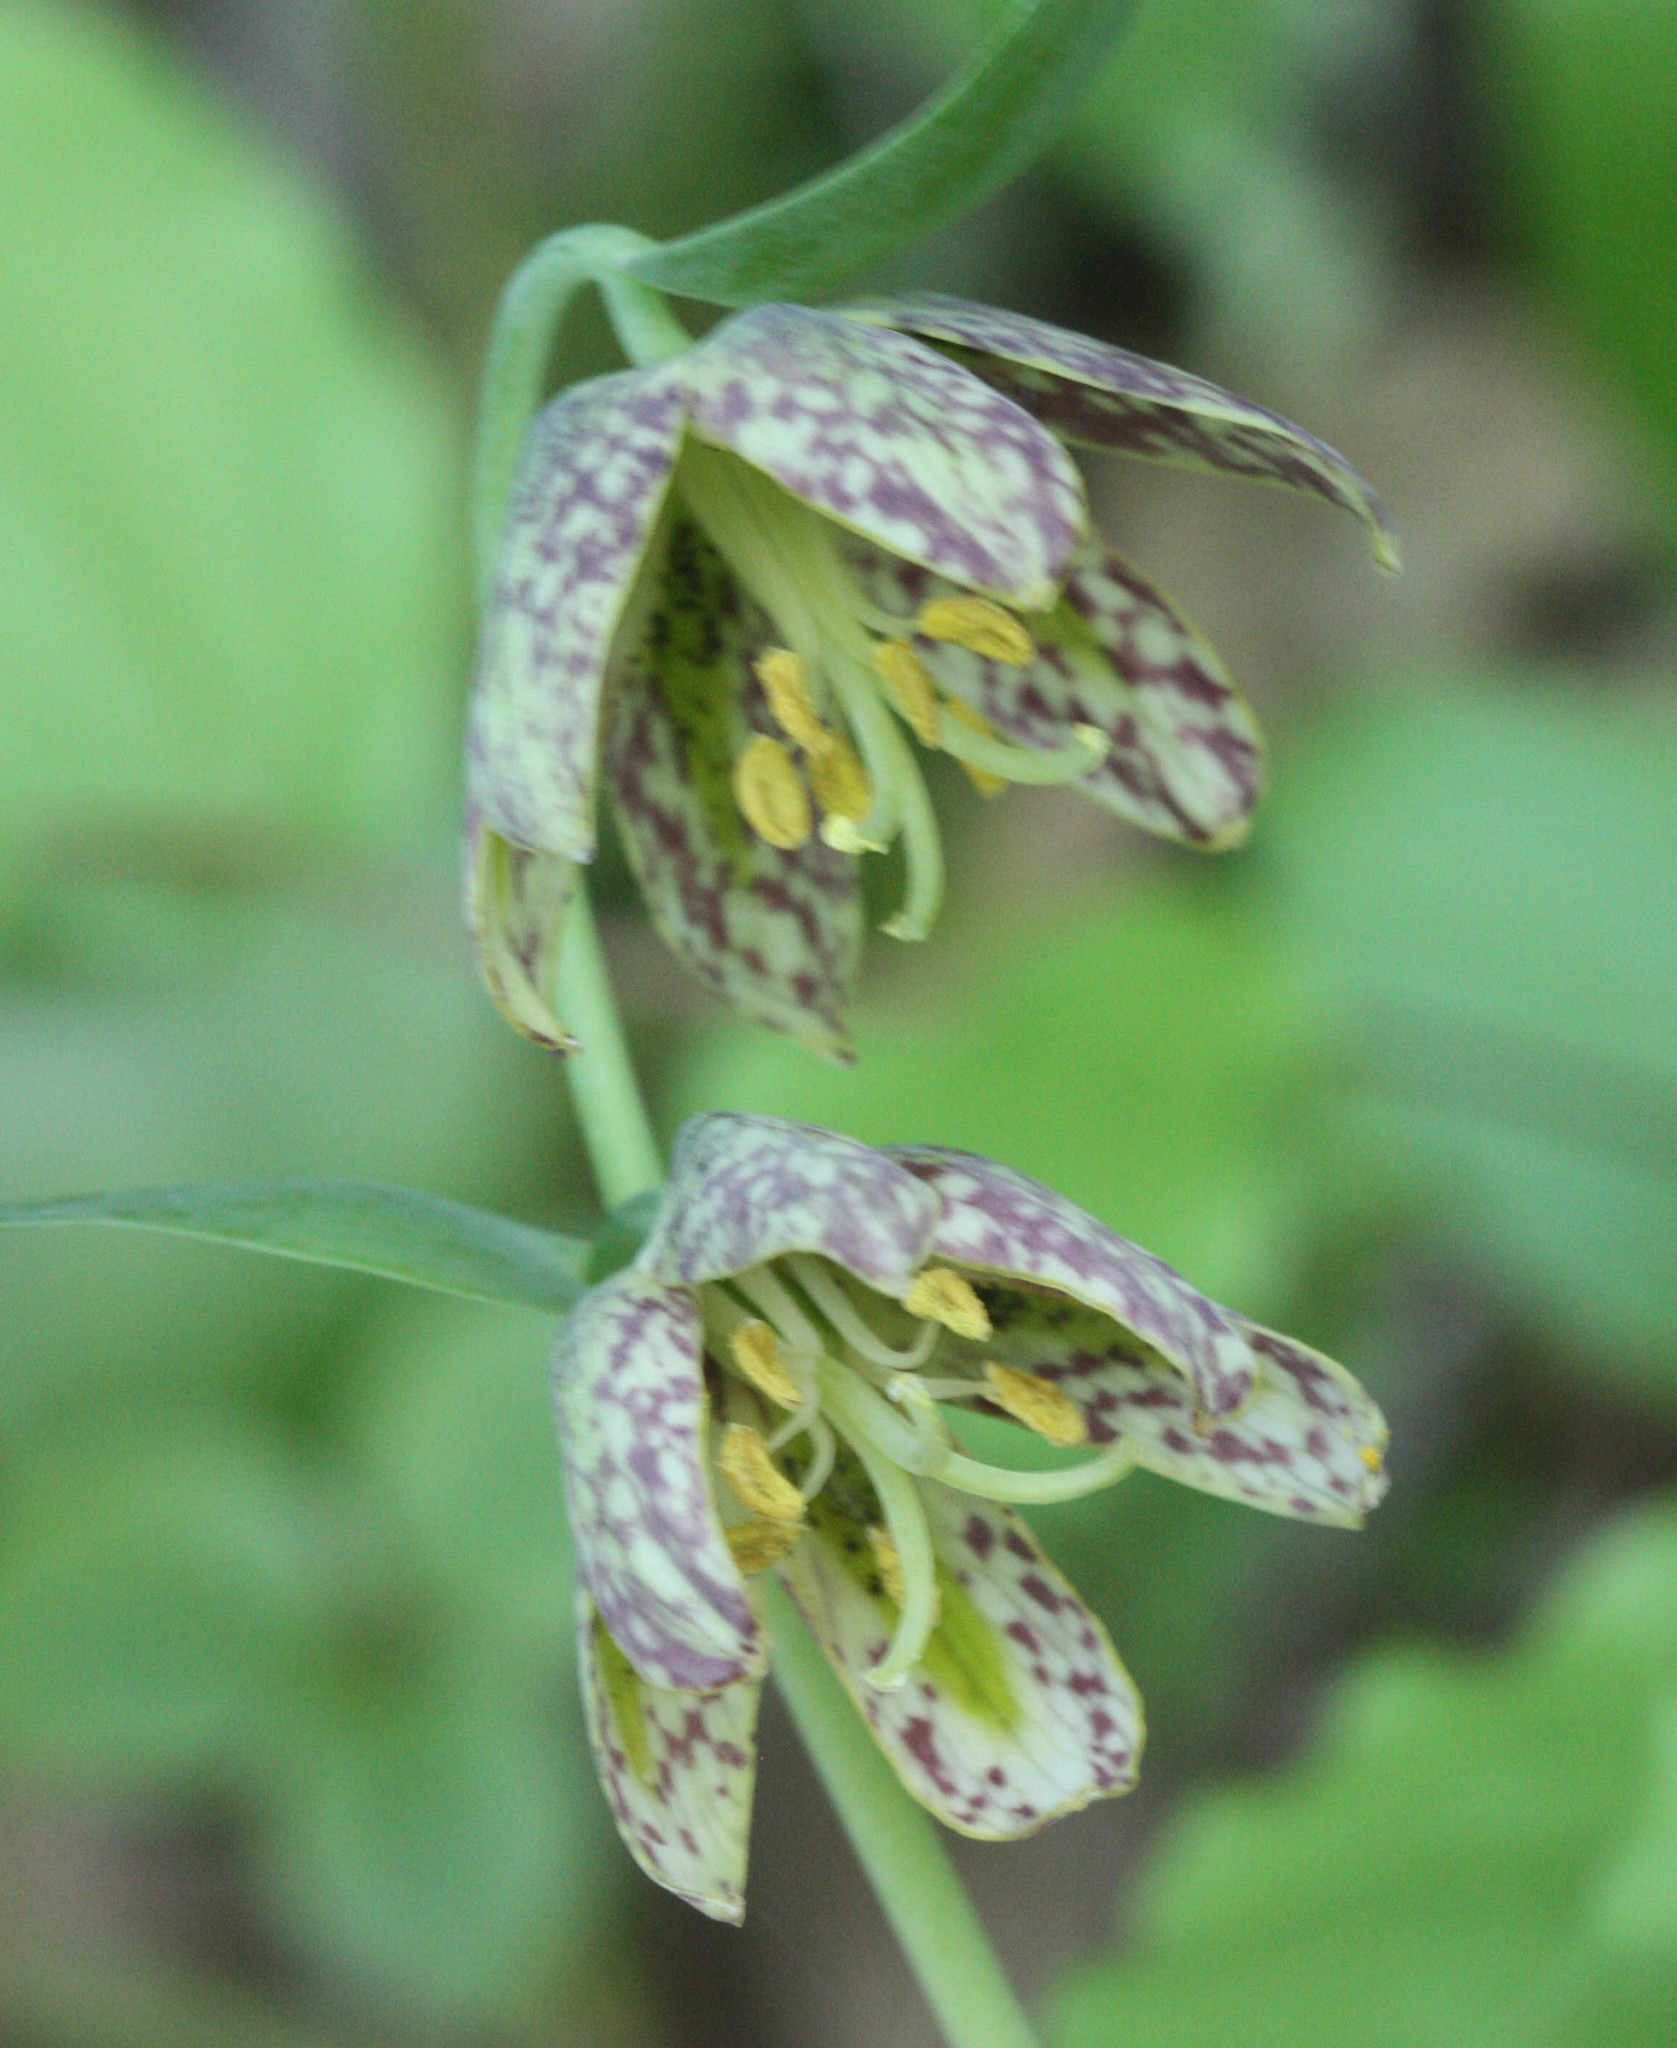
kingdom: Plantae
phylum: Tracheophyta
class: Liliopsida
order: Liliales
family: Liliaceae
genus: Fritillaria
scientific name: Fritillaria affinis
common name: Ojai fritillary
